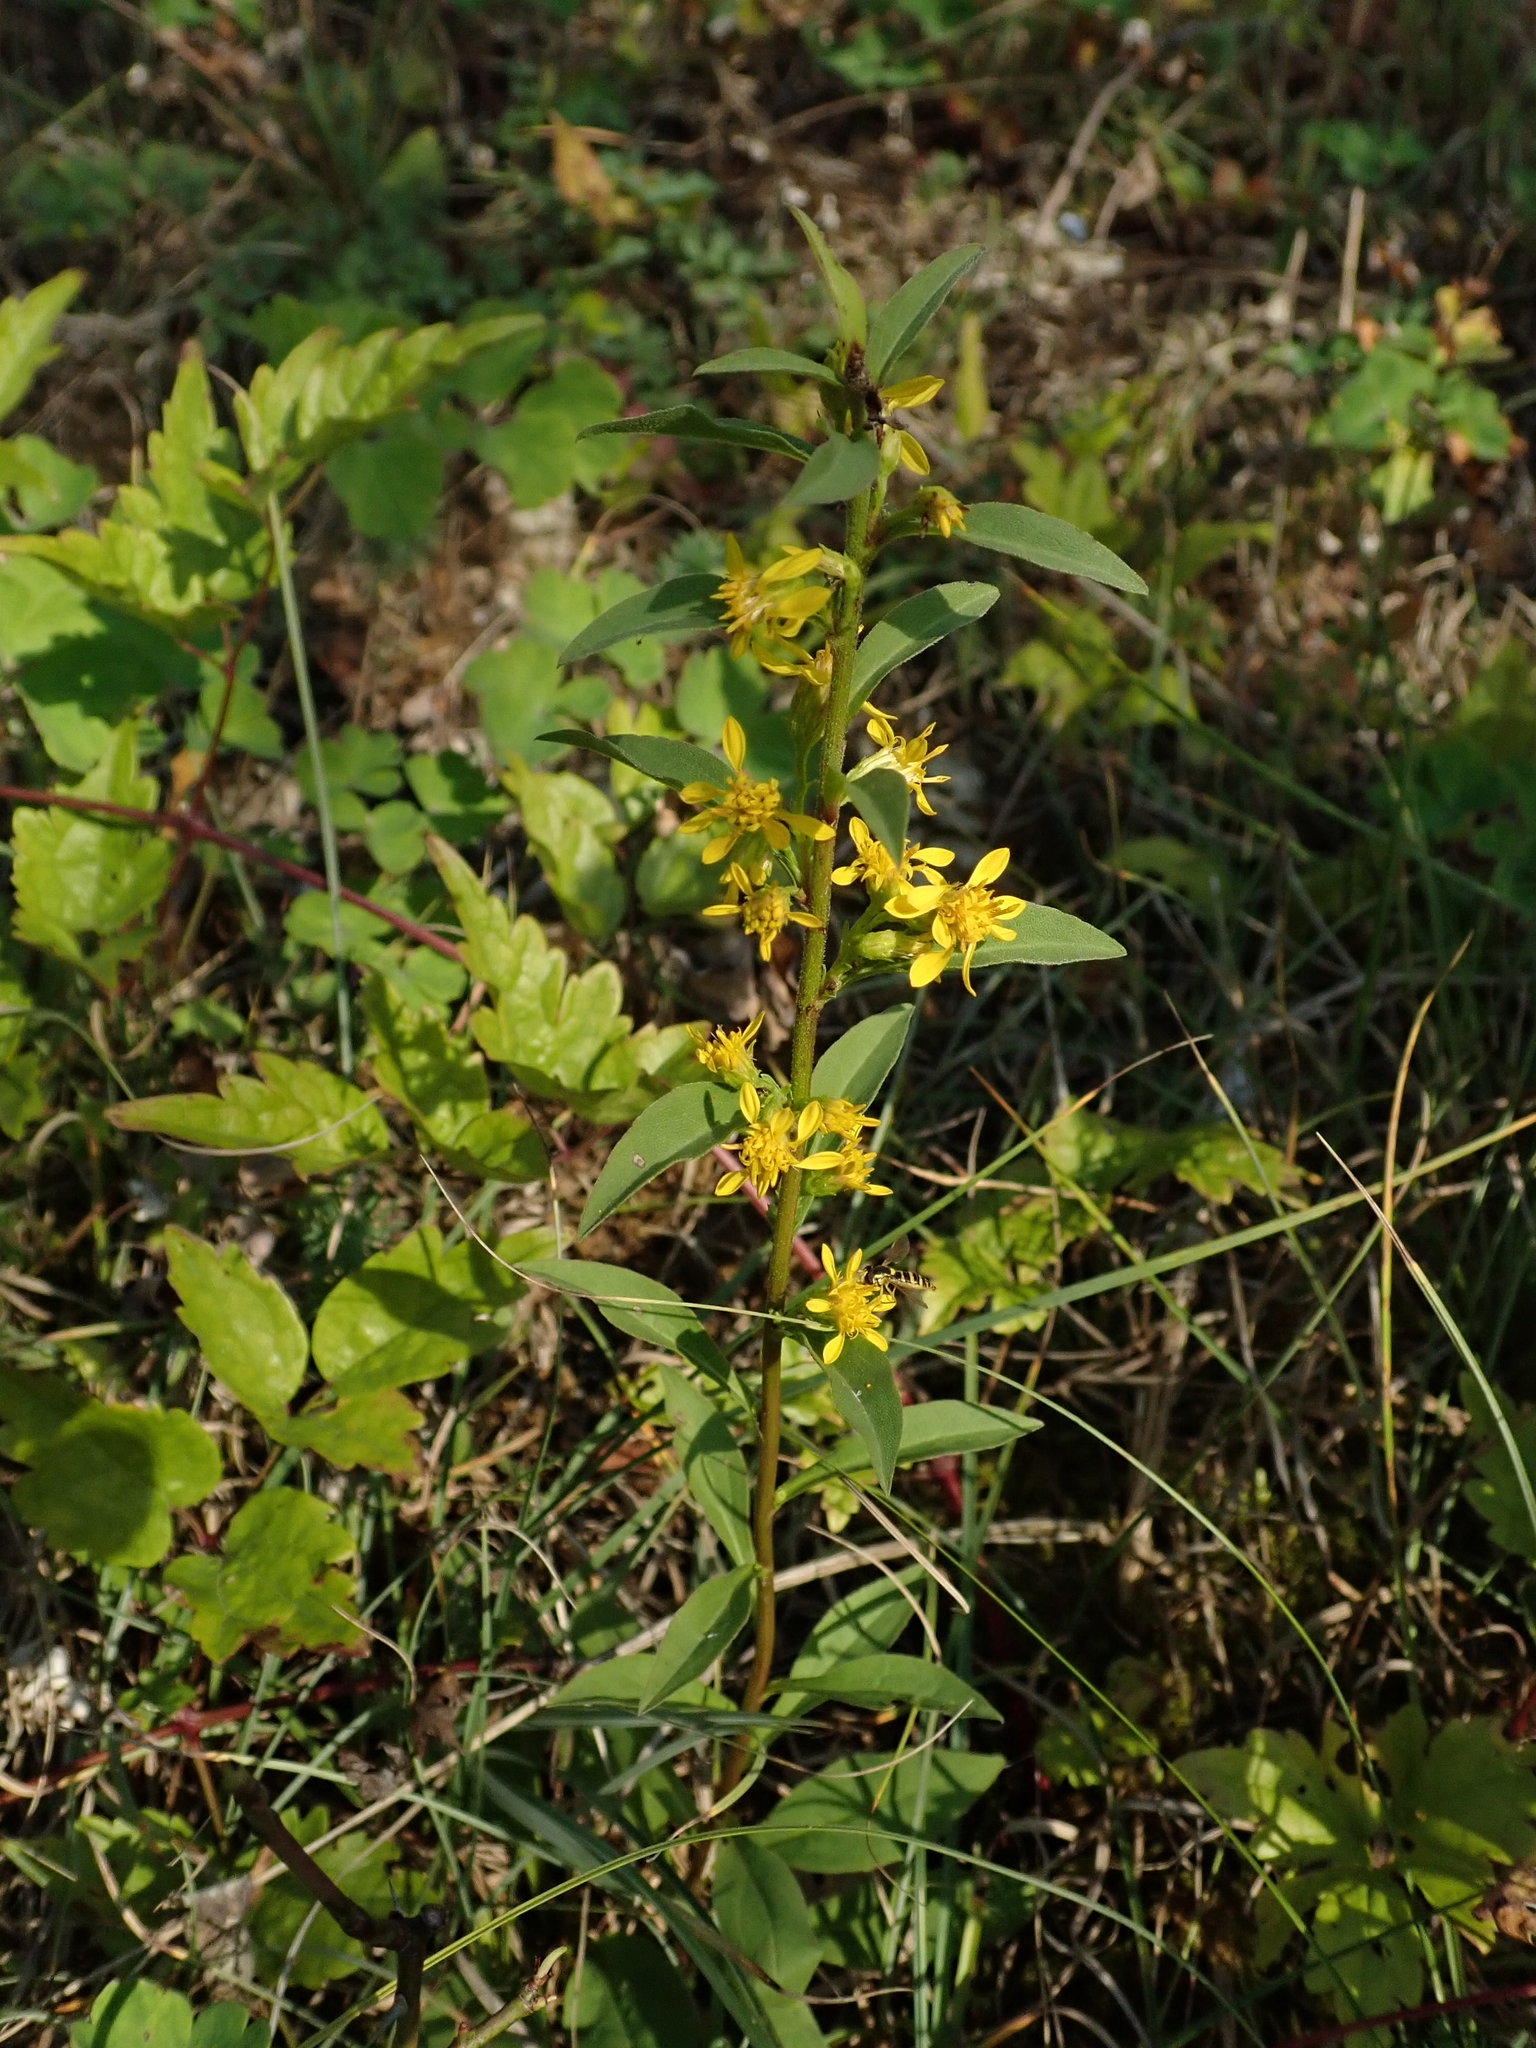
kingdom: Plantae
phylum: Tracheophyta
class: Magnoliopsida
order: Asterales
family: Asteraceae
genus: Solidago
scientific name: Solidago virgaurea
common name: Goldenrod
